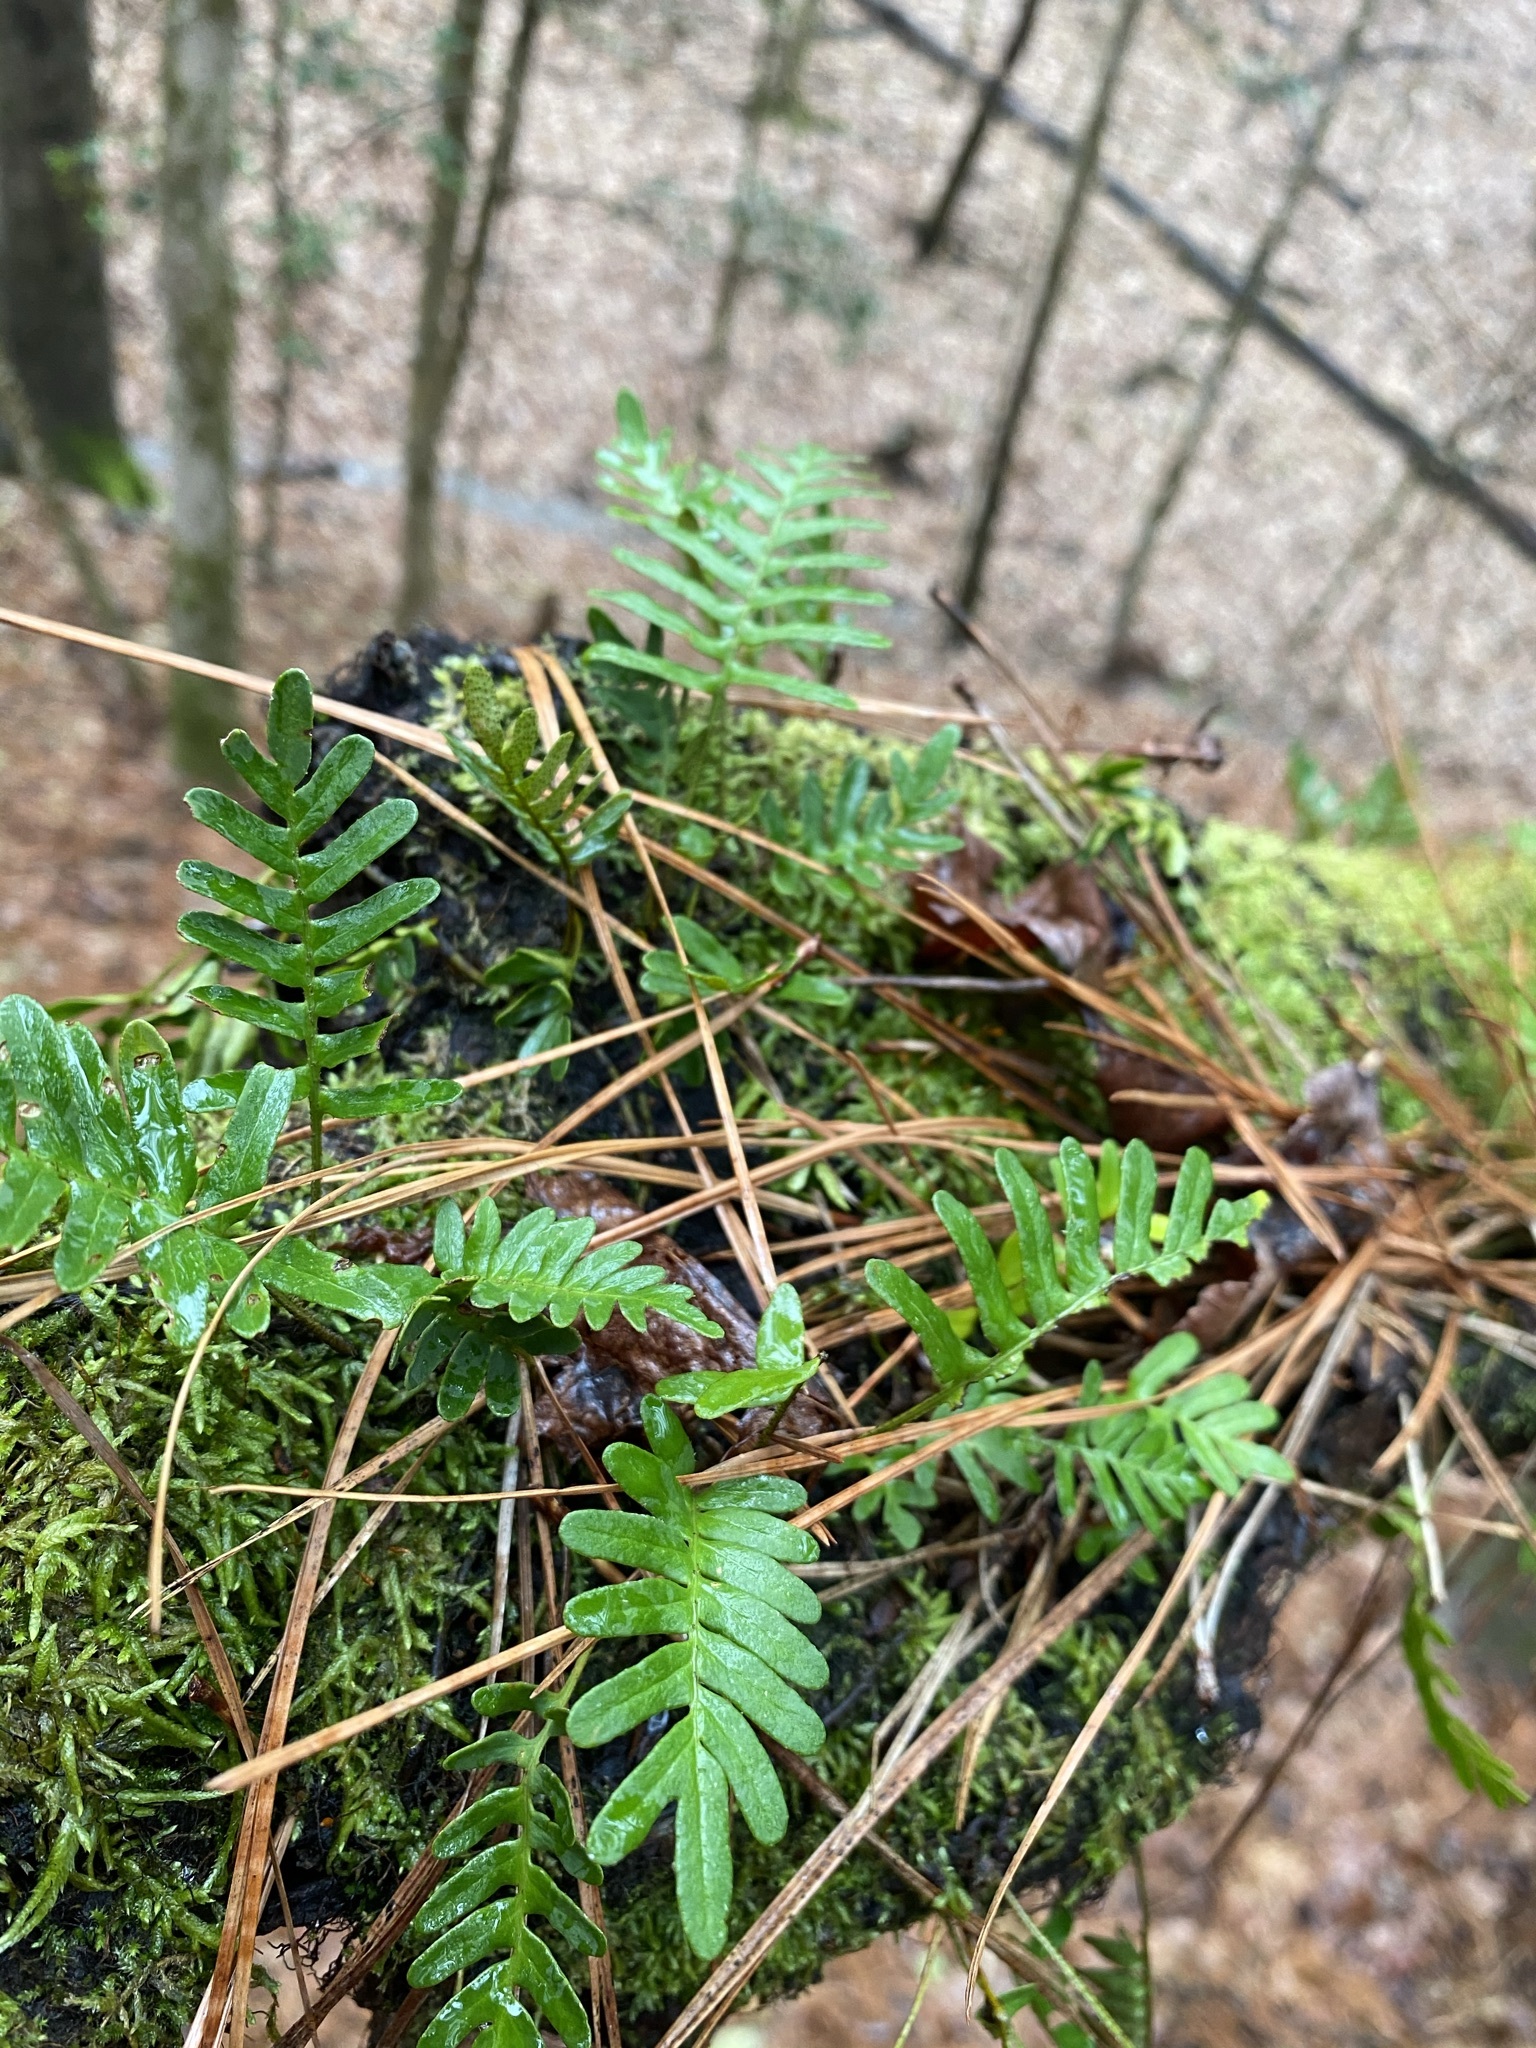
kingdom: Plantae
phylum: Tracheophyta
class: Polypodiopsida
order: Polypodiales
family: Polypodiaceae
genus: Pleopeltis
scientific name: Pleopeltis michauxiana
